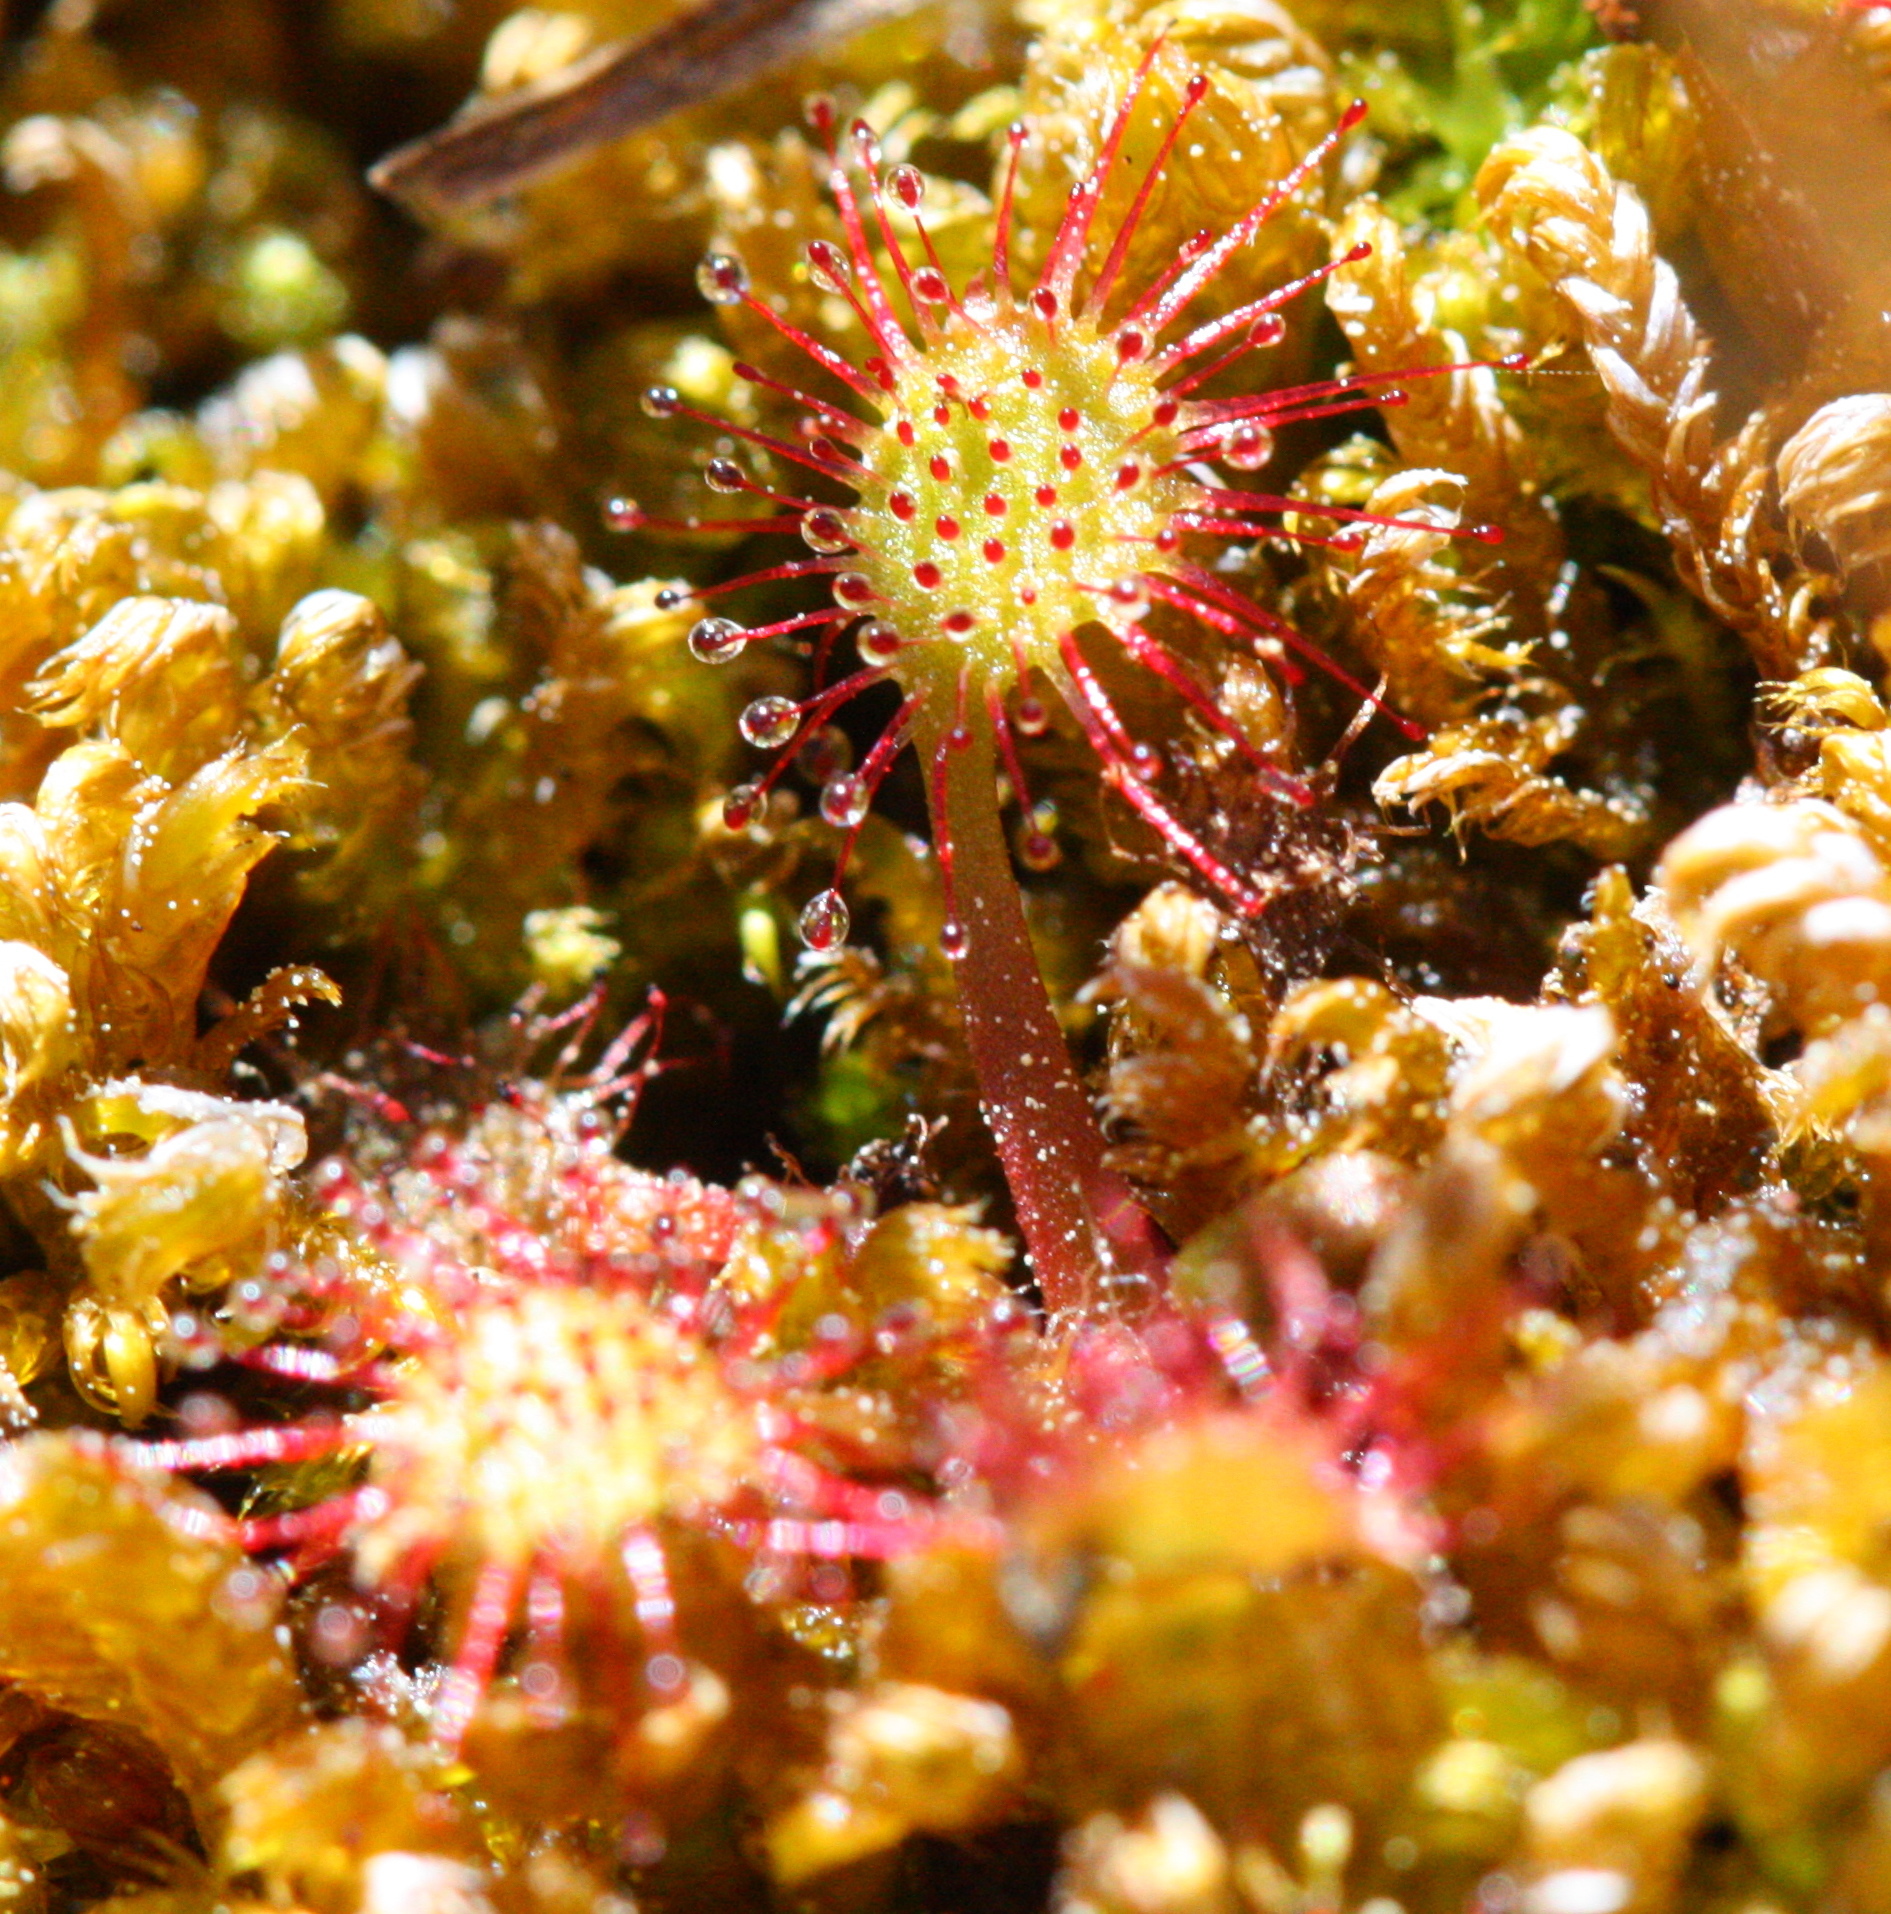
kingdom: Plantae
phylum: Tracheophyta
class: Magnoliopsida
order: Caryophyllales
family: Droseraceae
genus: Drosera
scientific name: Drosera rotundifolia
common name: Round-leaved sundew
